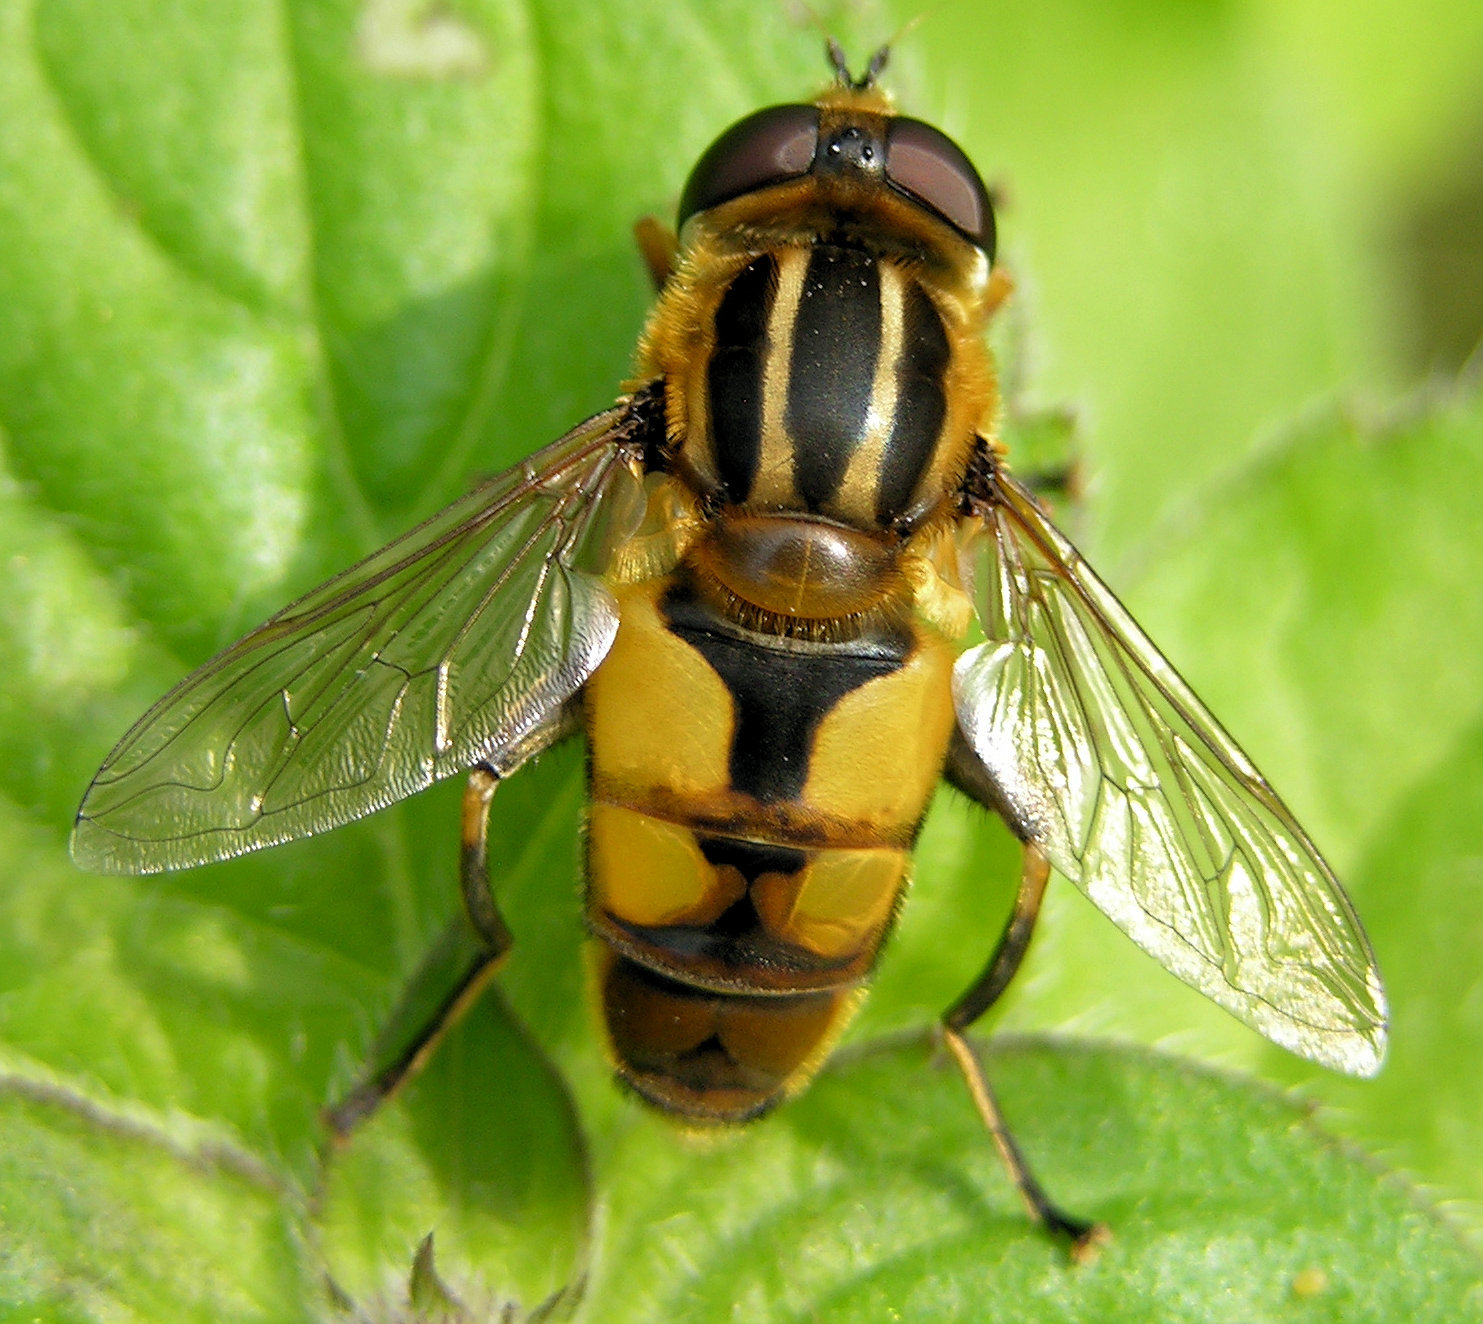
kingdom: Animalia
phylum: Arthropoda
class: Insecta
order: Diptera
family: Syrphidae
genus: Helophilus
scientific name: Helophilus hybridus
